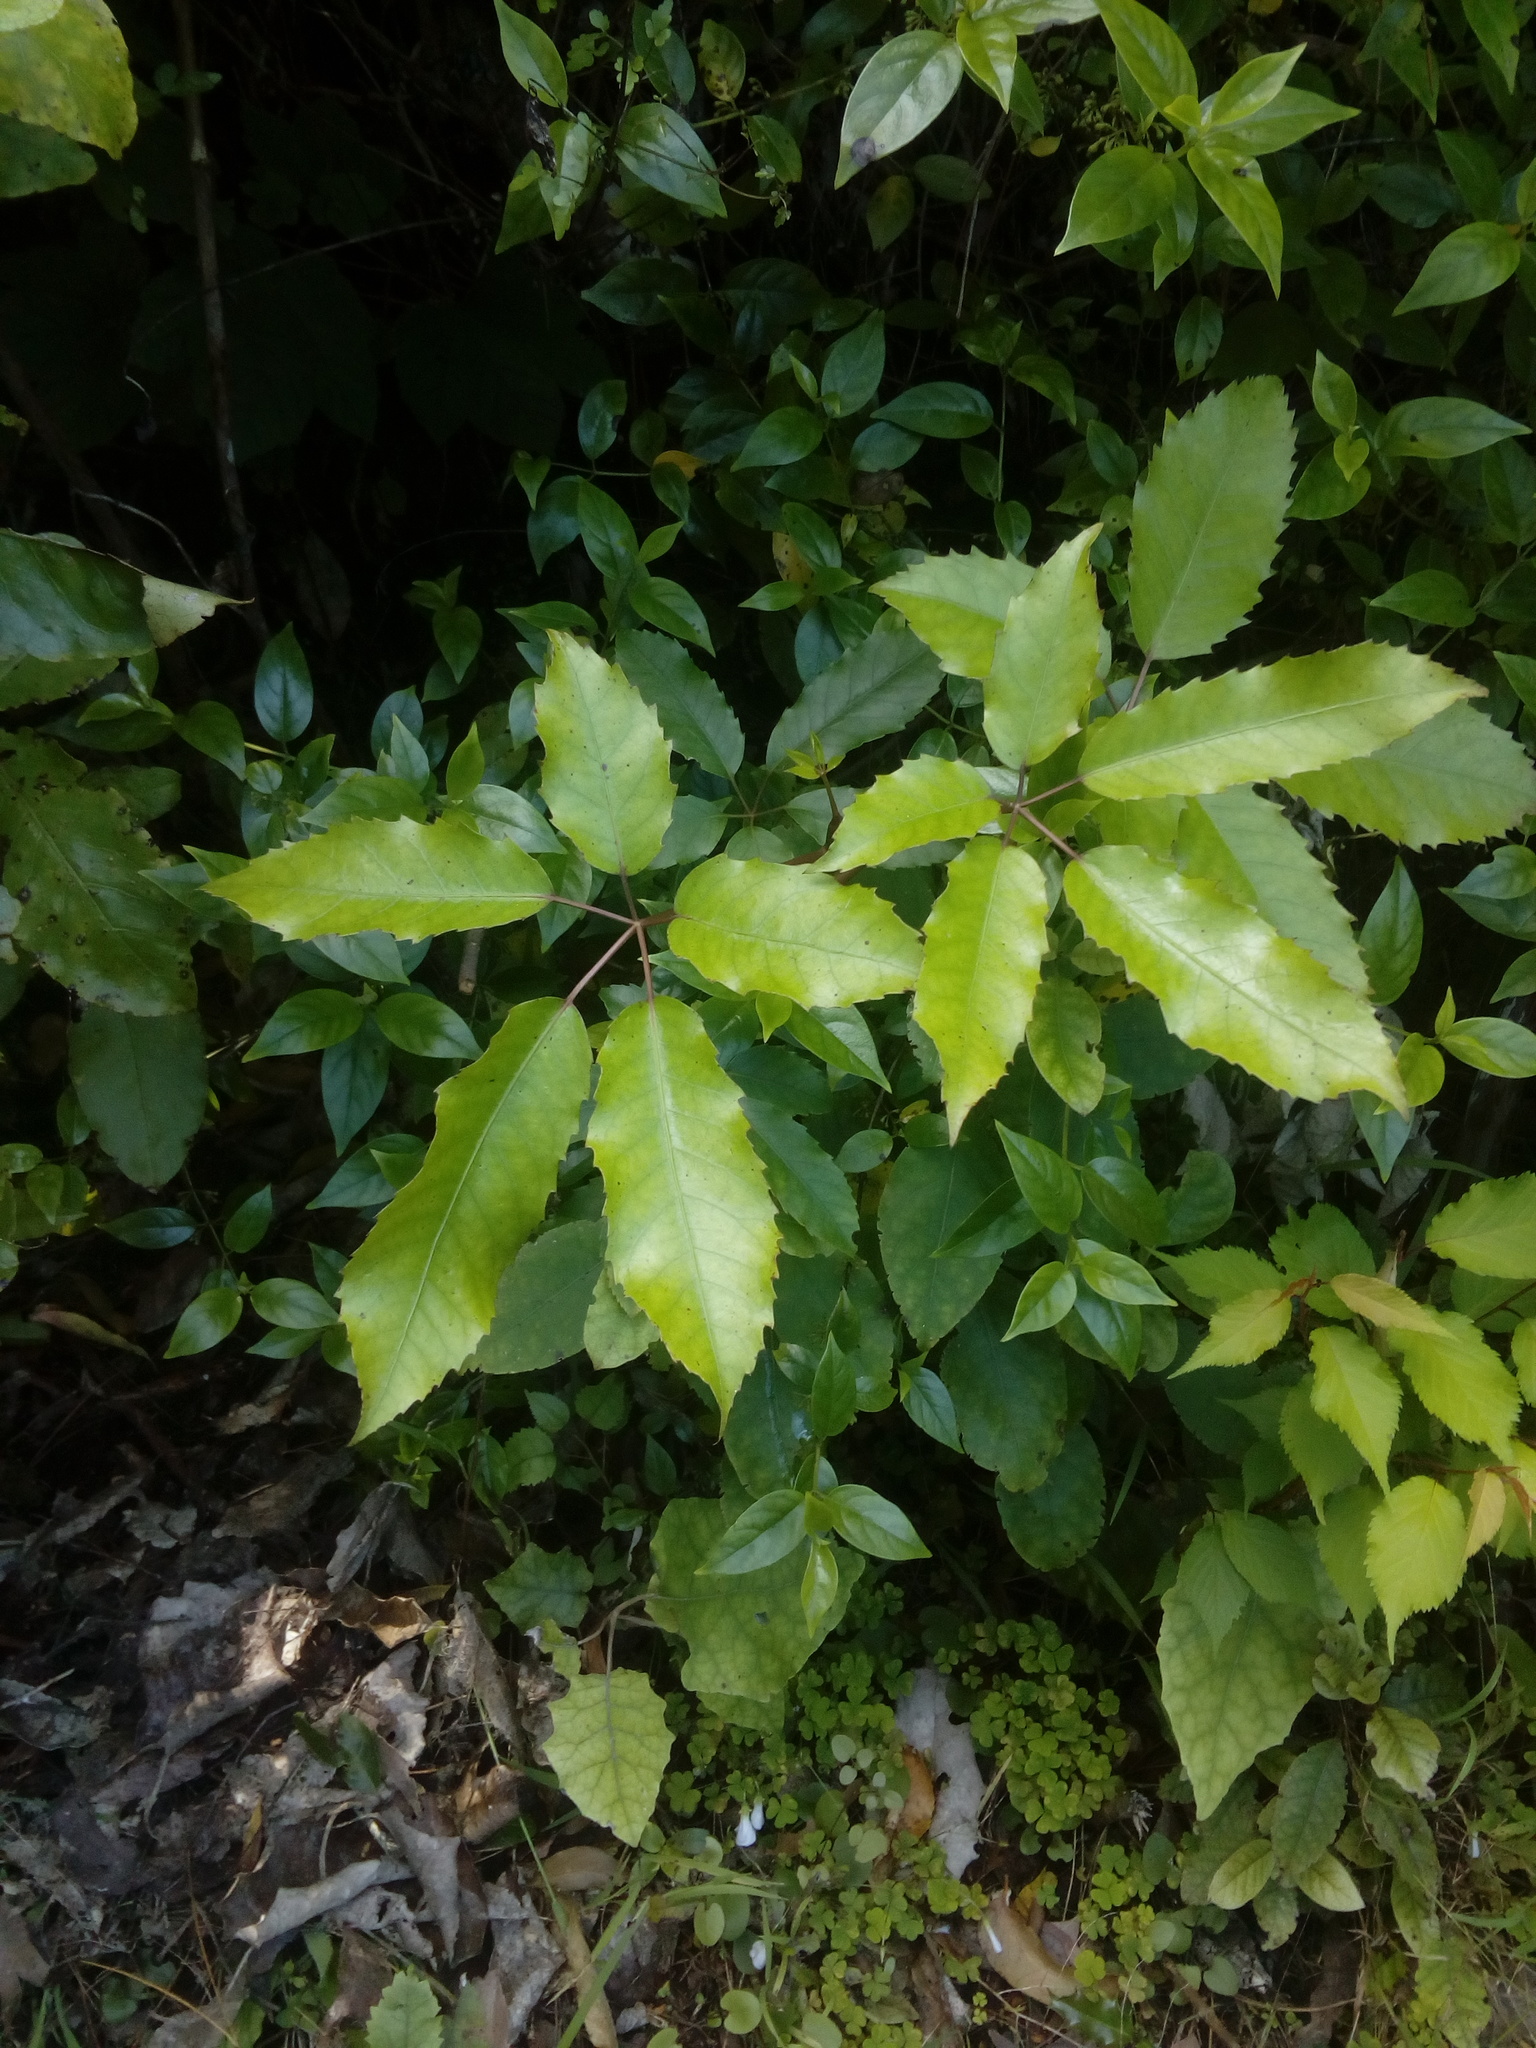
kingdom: Plantae
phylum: Tracheophyta
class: Magnoliopsida
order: Apiales
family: Araliaceae
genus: Neopanax
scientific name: Neopanax arboreus
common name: Five-fingers
